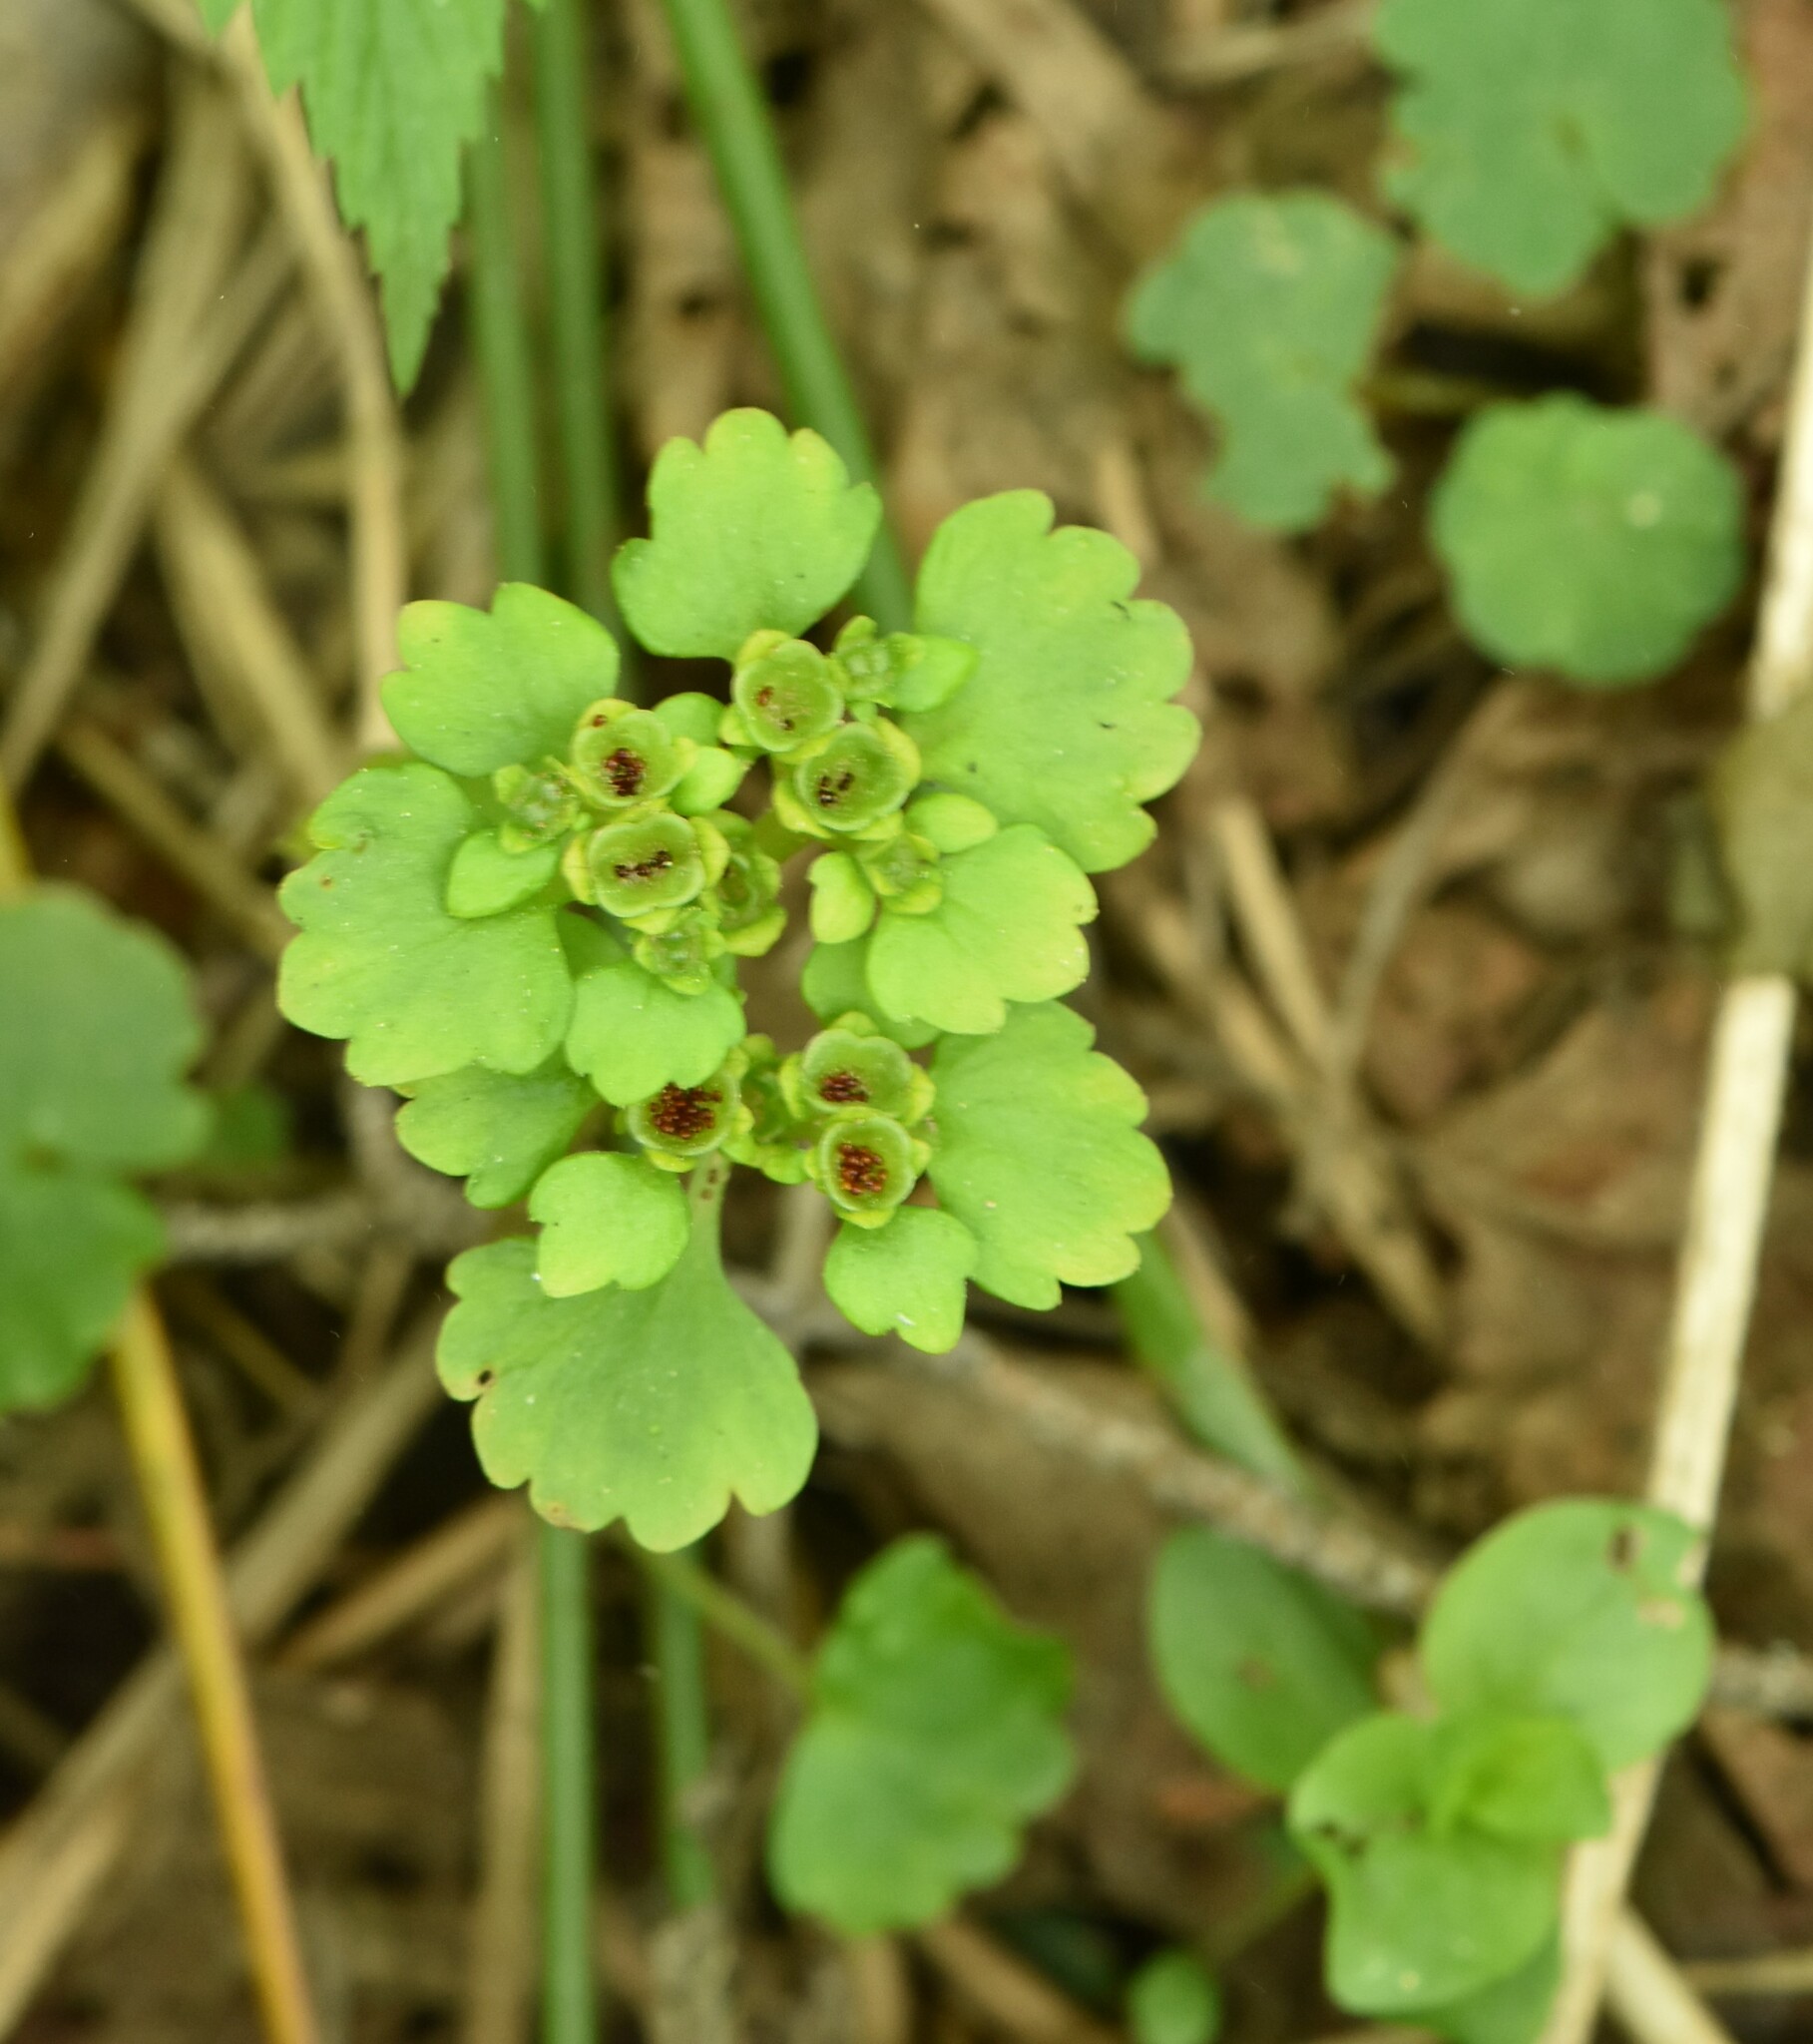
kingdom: Plantae
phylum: Tracheophyta
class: Magnoliopsida
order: Saxifragales
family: Saxifragaceae
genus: Chrysosplenium
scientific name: Chrysosplenium alternifolium
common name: Alternate-leaved golden-saxifrage
